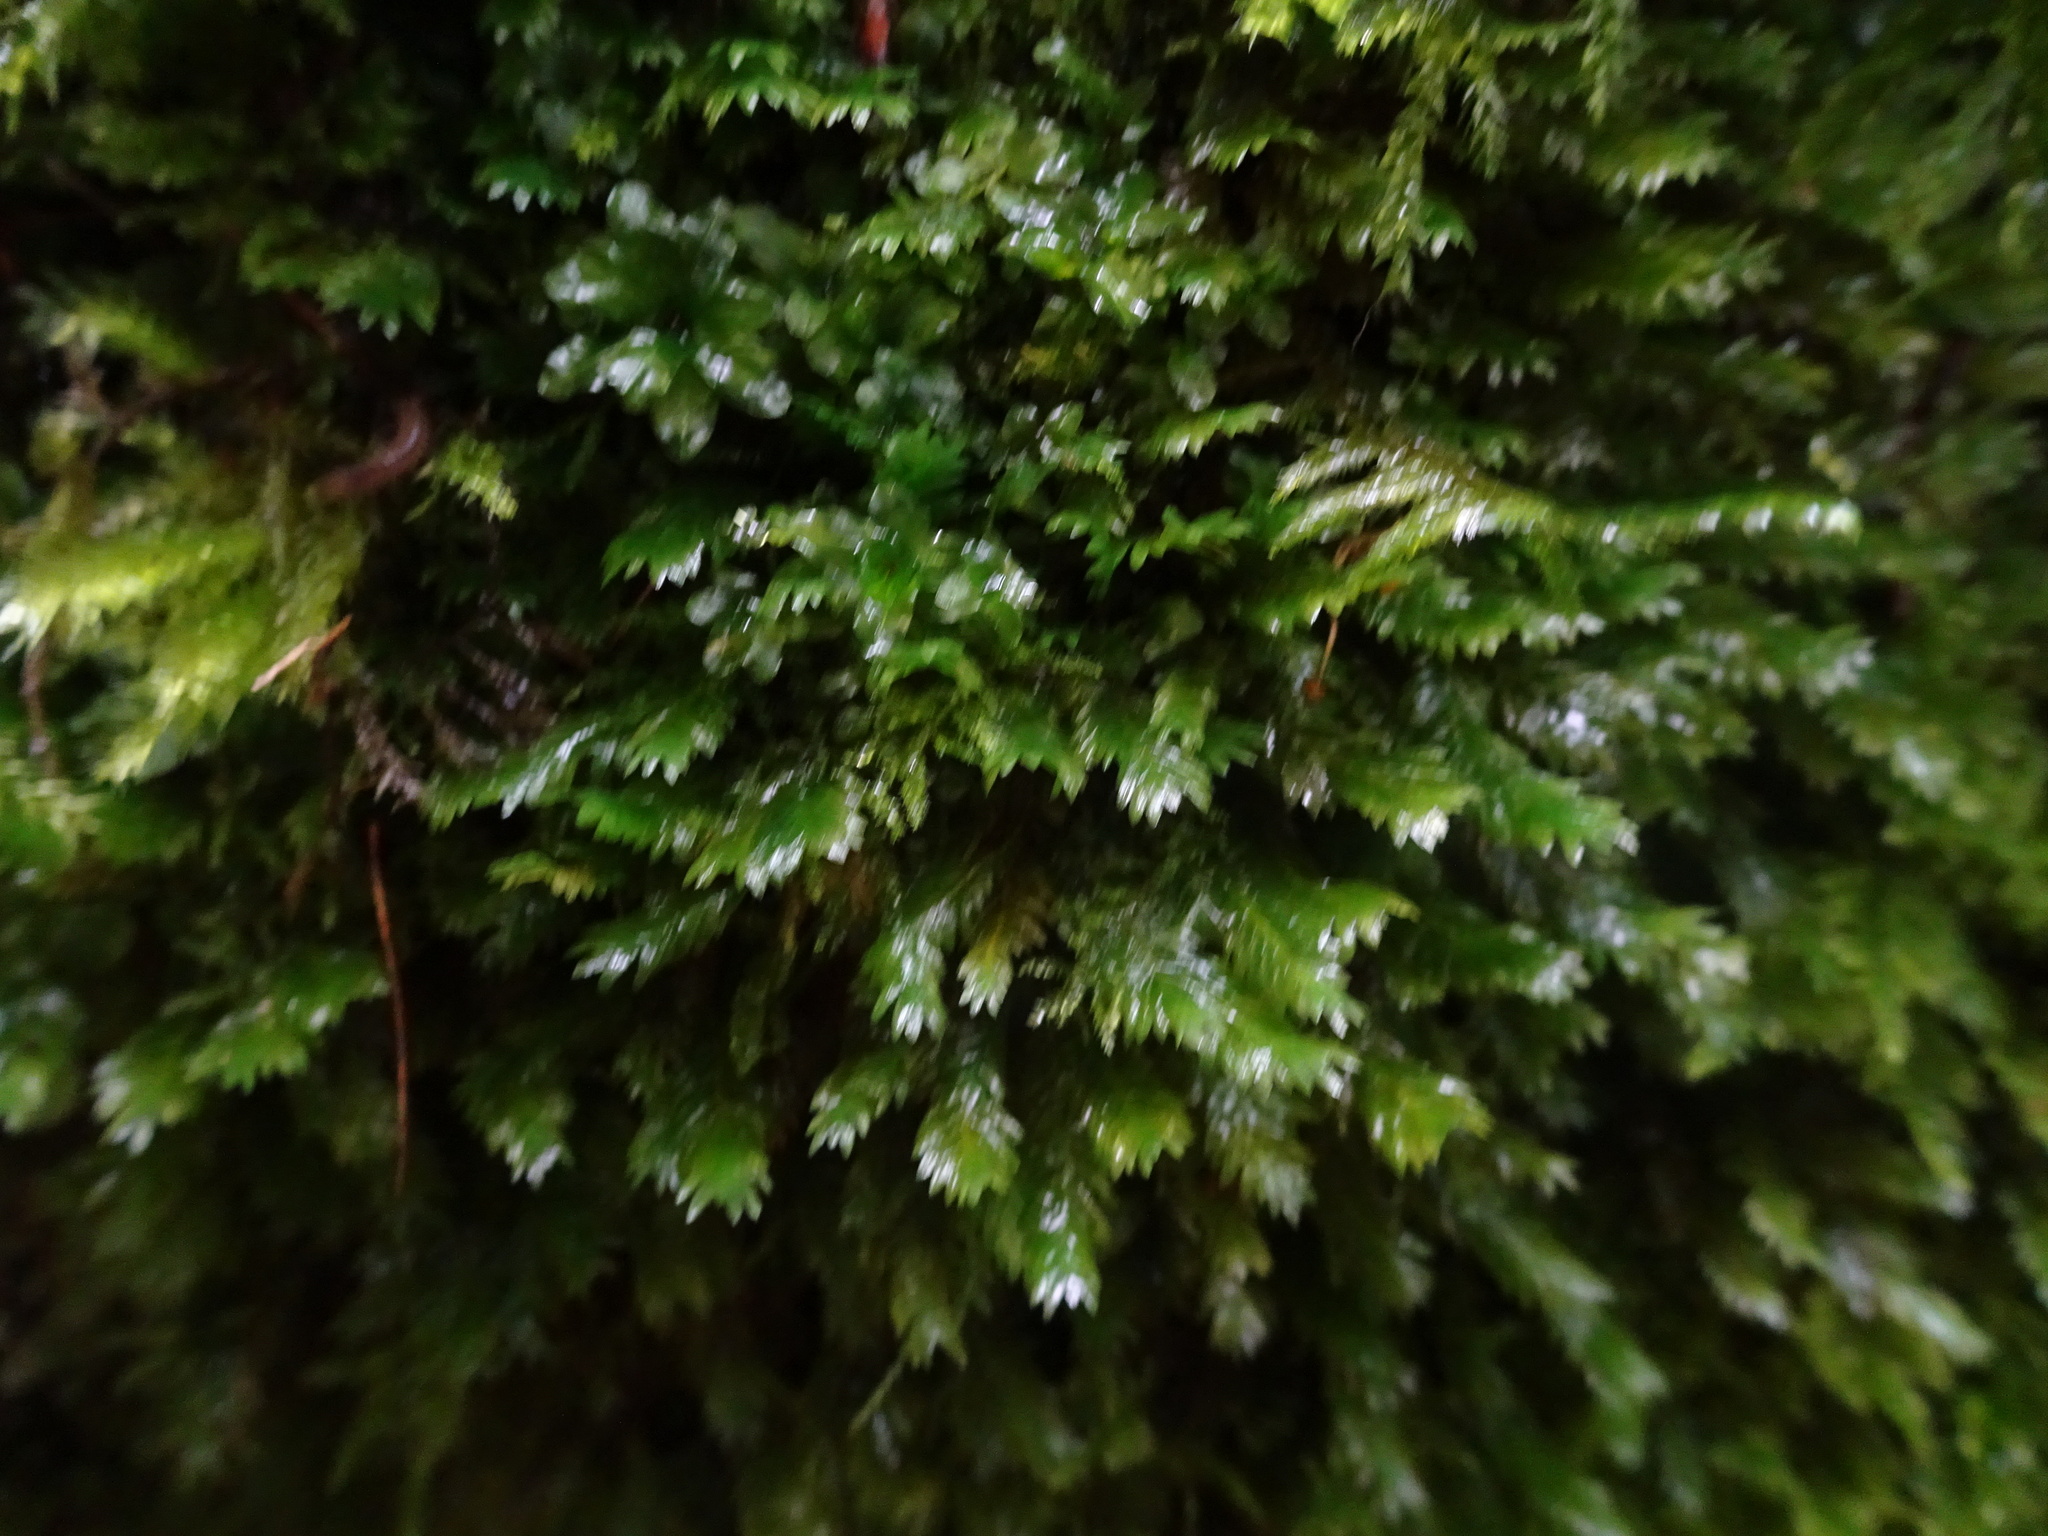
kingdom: Plantae
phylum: Bryophyta
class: Bryopsida
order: Dicranales
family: Fissidentaceae
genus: Fissidens
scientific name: Fissidens dubius
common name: Rock pocket moss
